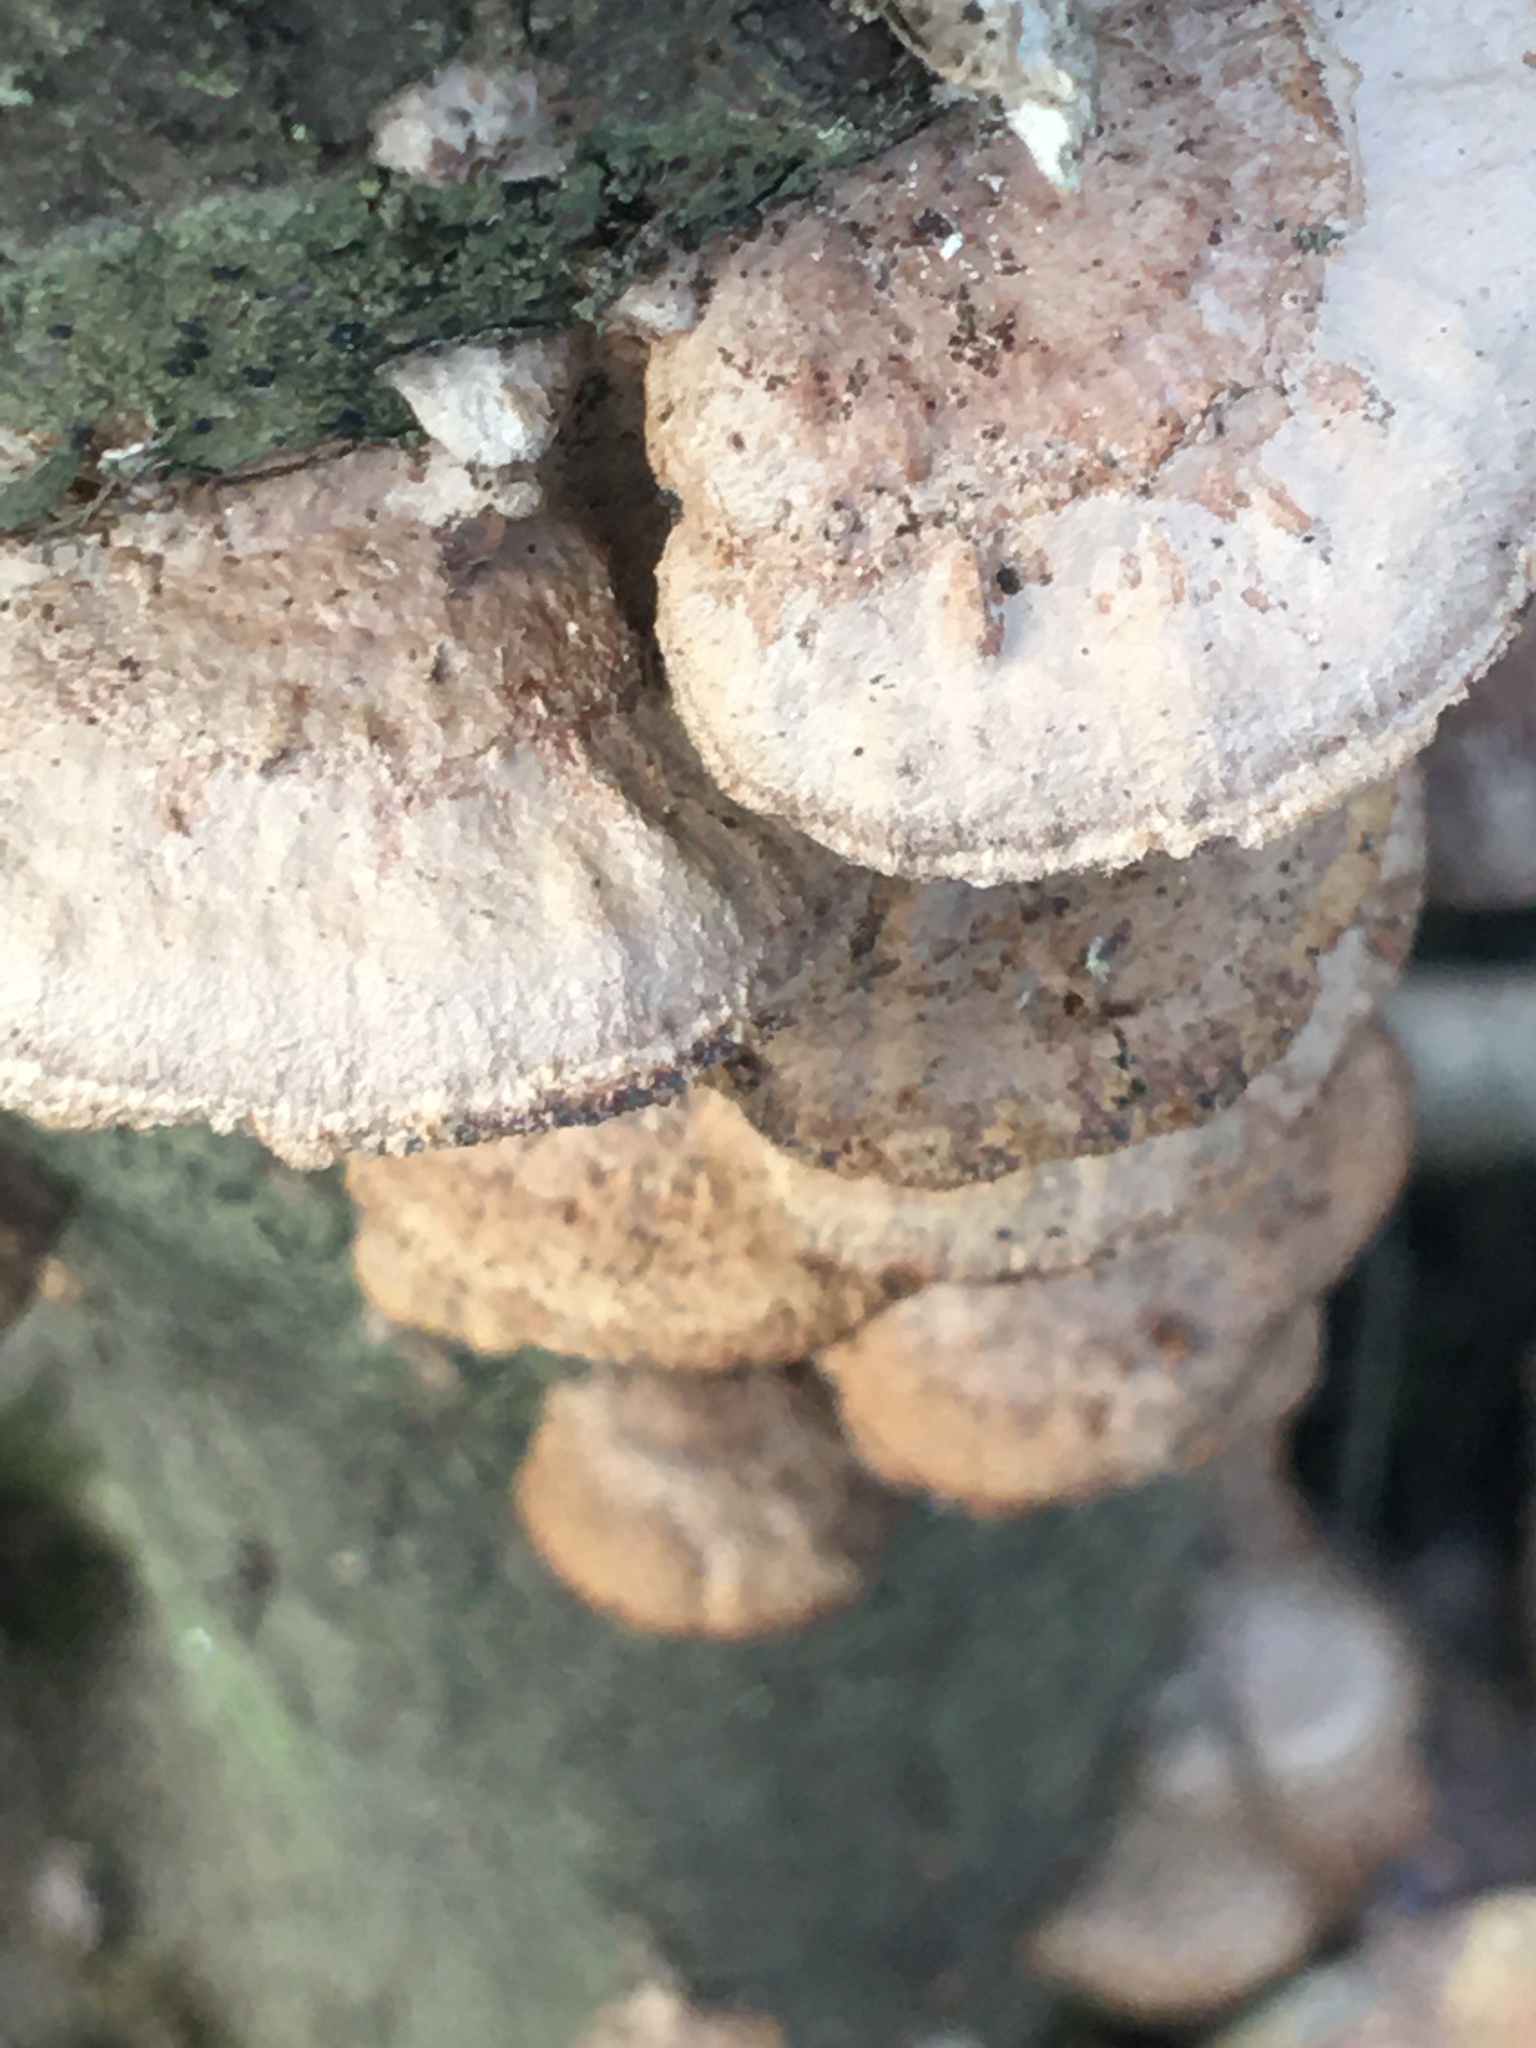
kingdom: Fungi
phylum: Basidiomycota
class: Agaricomycetes
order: Hymenochaetales
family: Hymenochaetaceae
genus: Phellinus
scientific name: Phellinus gilvus
